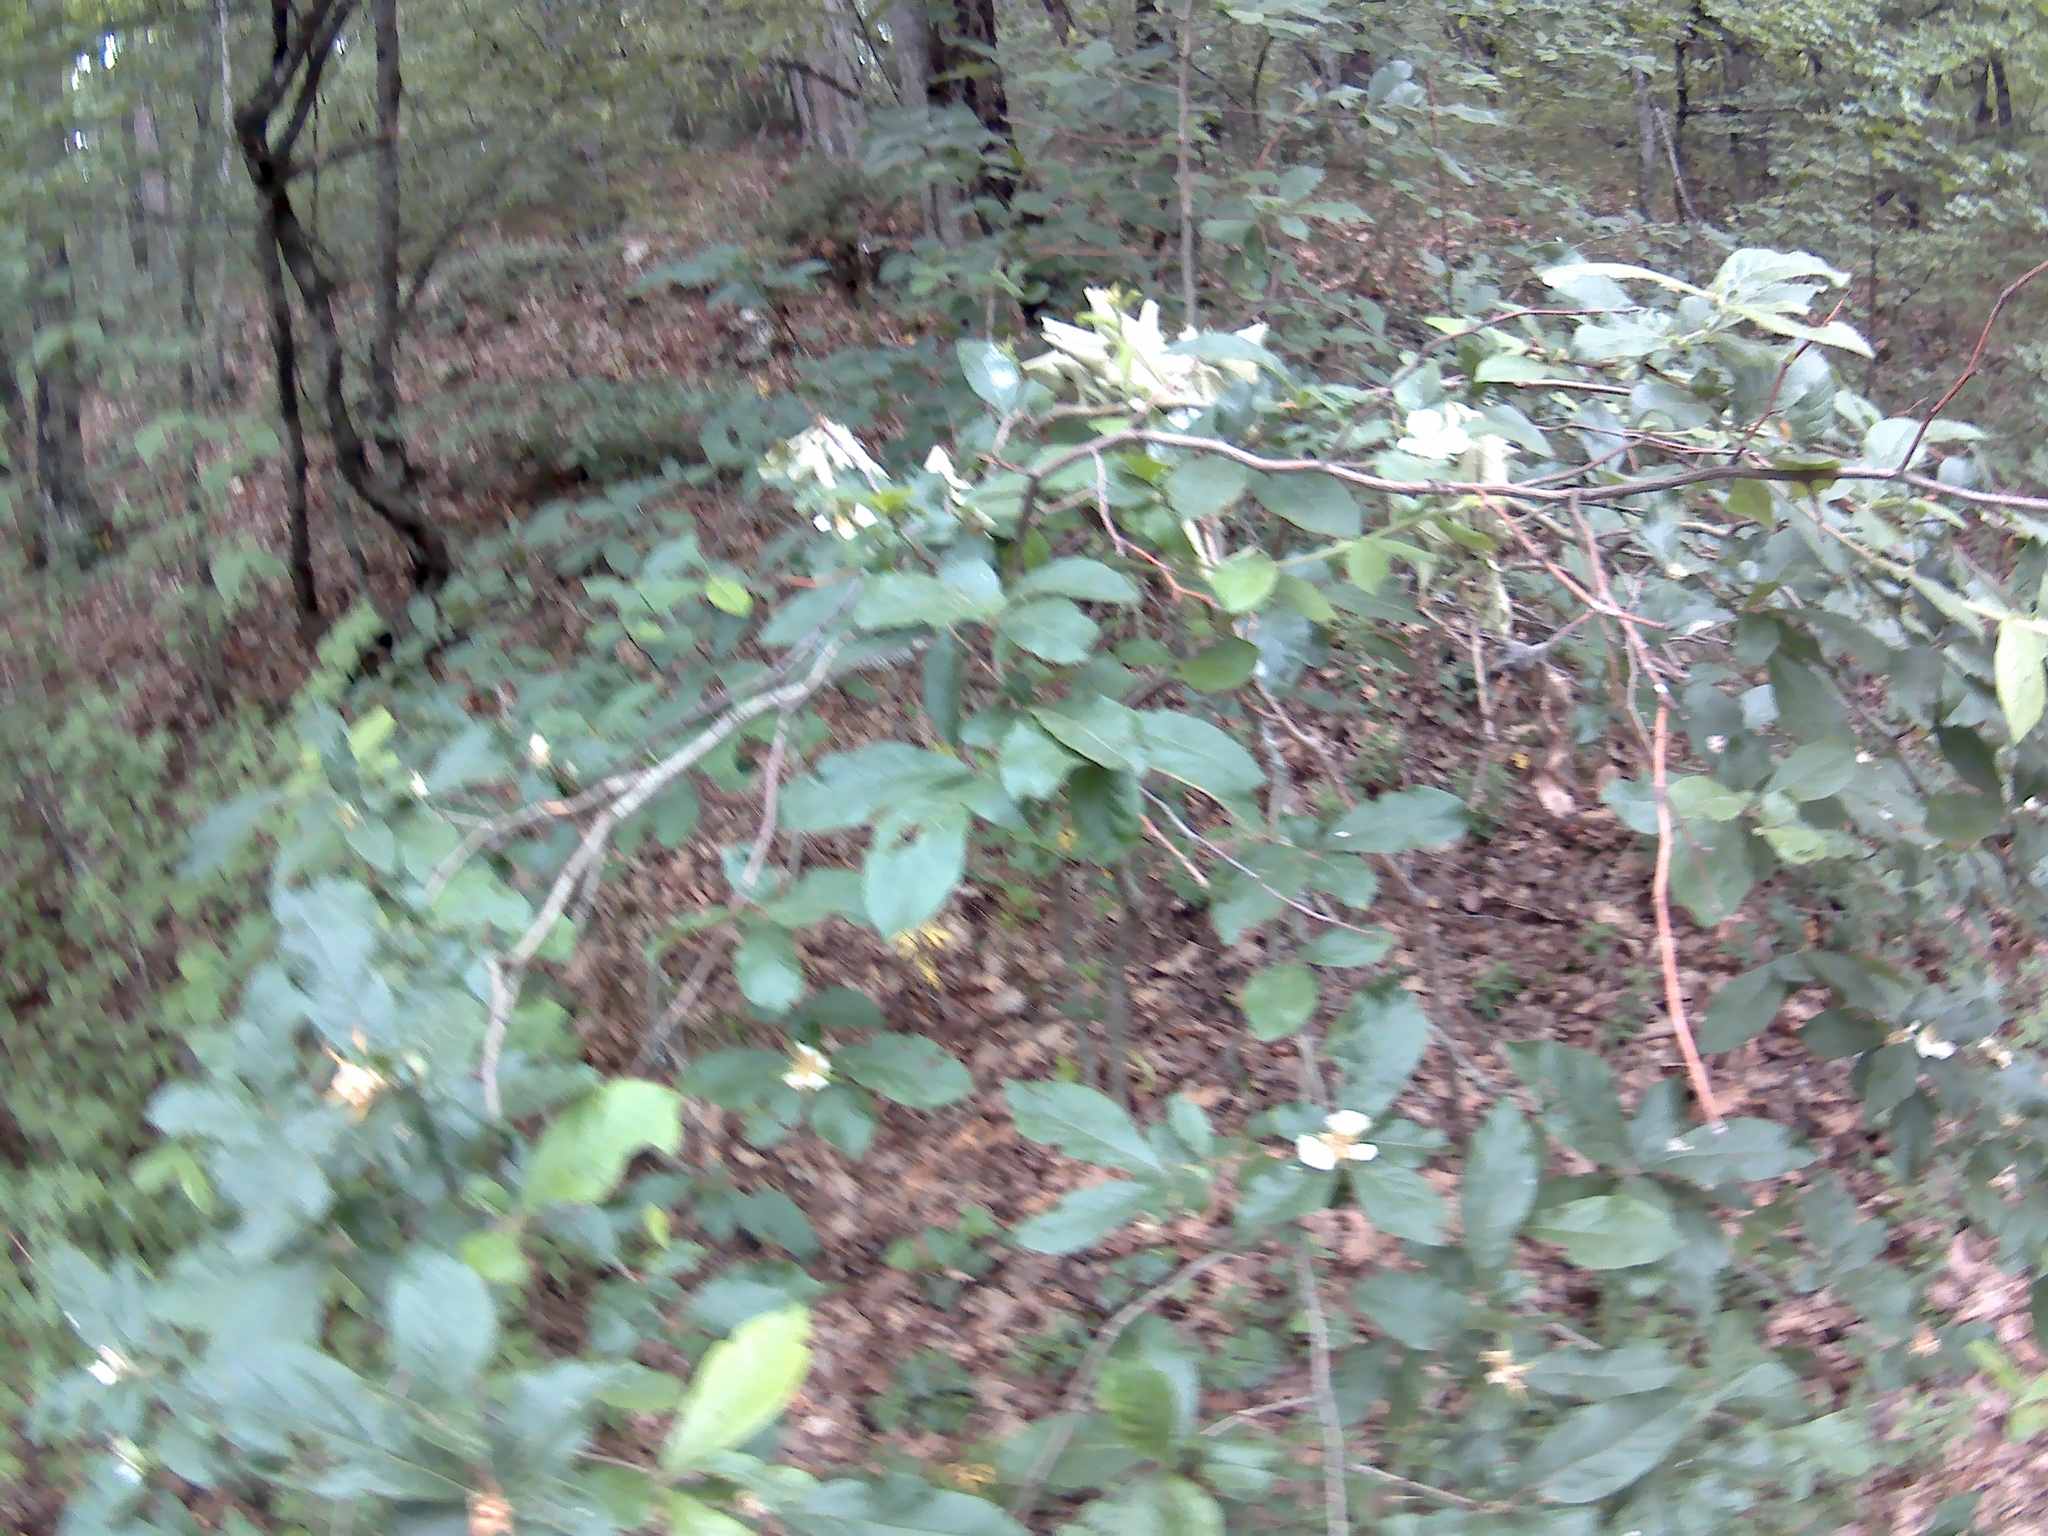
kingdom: Plantae
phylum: Tracheophyta
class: Magnoliopsida
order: Rosales
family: Rosaceae
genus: Mespilus
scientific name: Mespilus germanica
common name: Medlar
